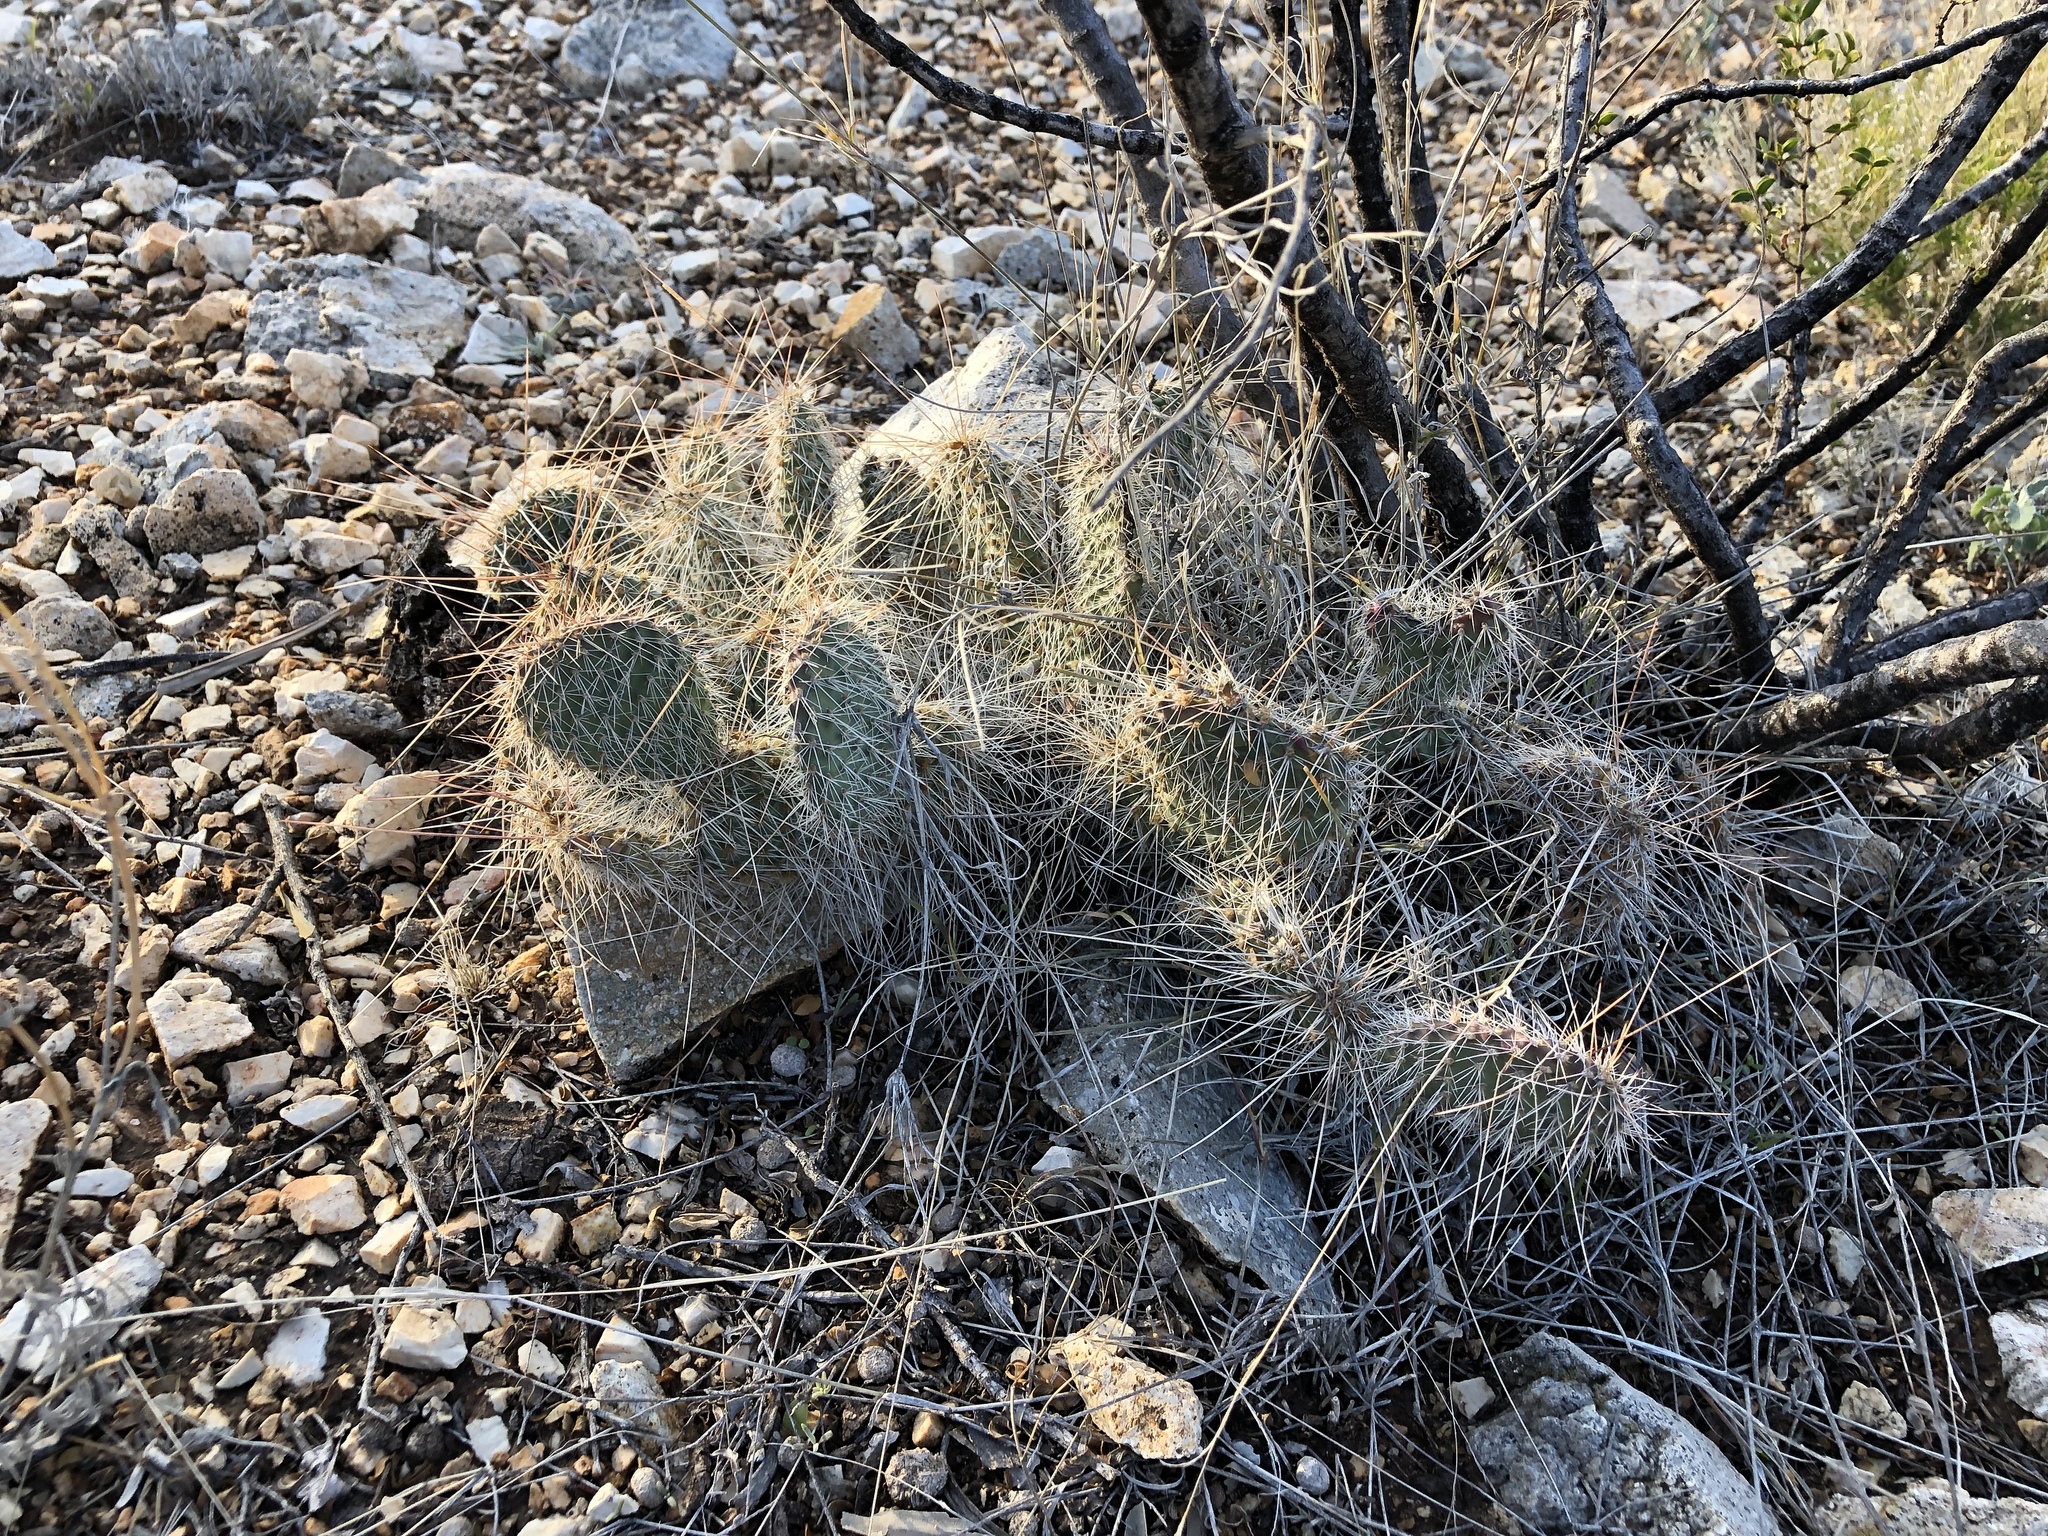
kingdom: Plantae
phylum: Tracheophyta
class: Magnoliopsida
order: Caryophyllales
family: Cactaceae
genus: Opuntia
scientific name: Opuntia polyacantha
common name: Plains prickly-pear
